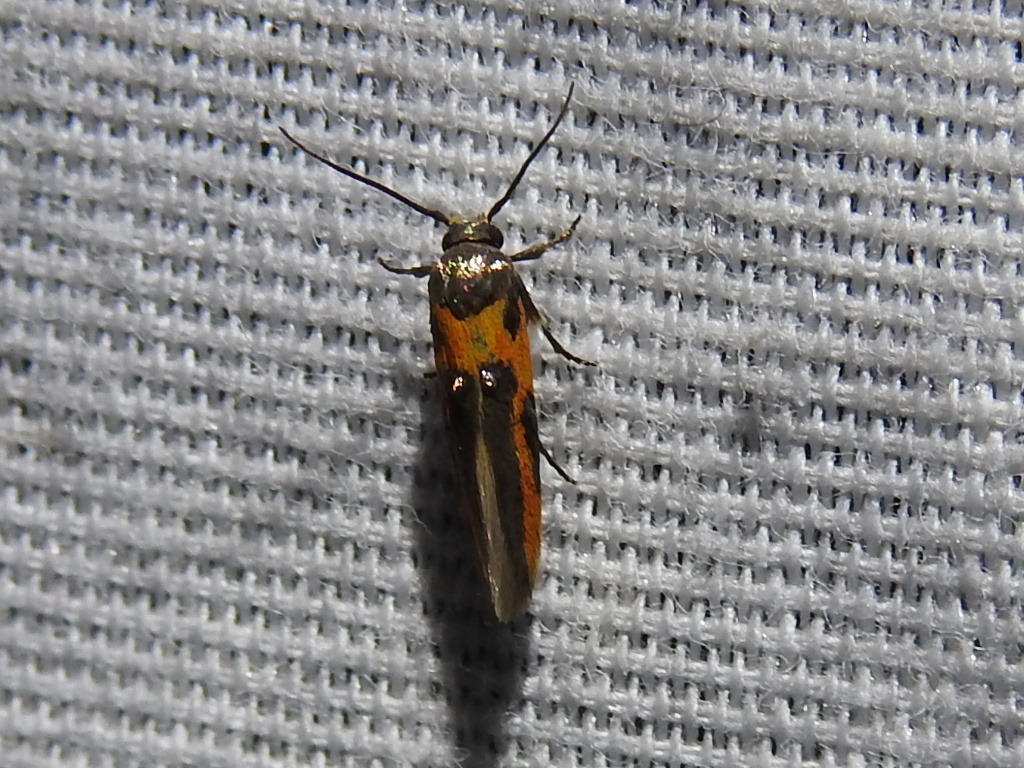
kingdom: Animalia
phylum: Arthropoda
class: Insecta
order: Lepidoptera
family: Cosmopterigidae
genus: Euclemensia
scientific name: Euclemensia bassettella
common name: Kermes scale moth
